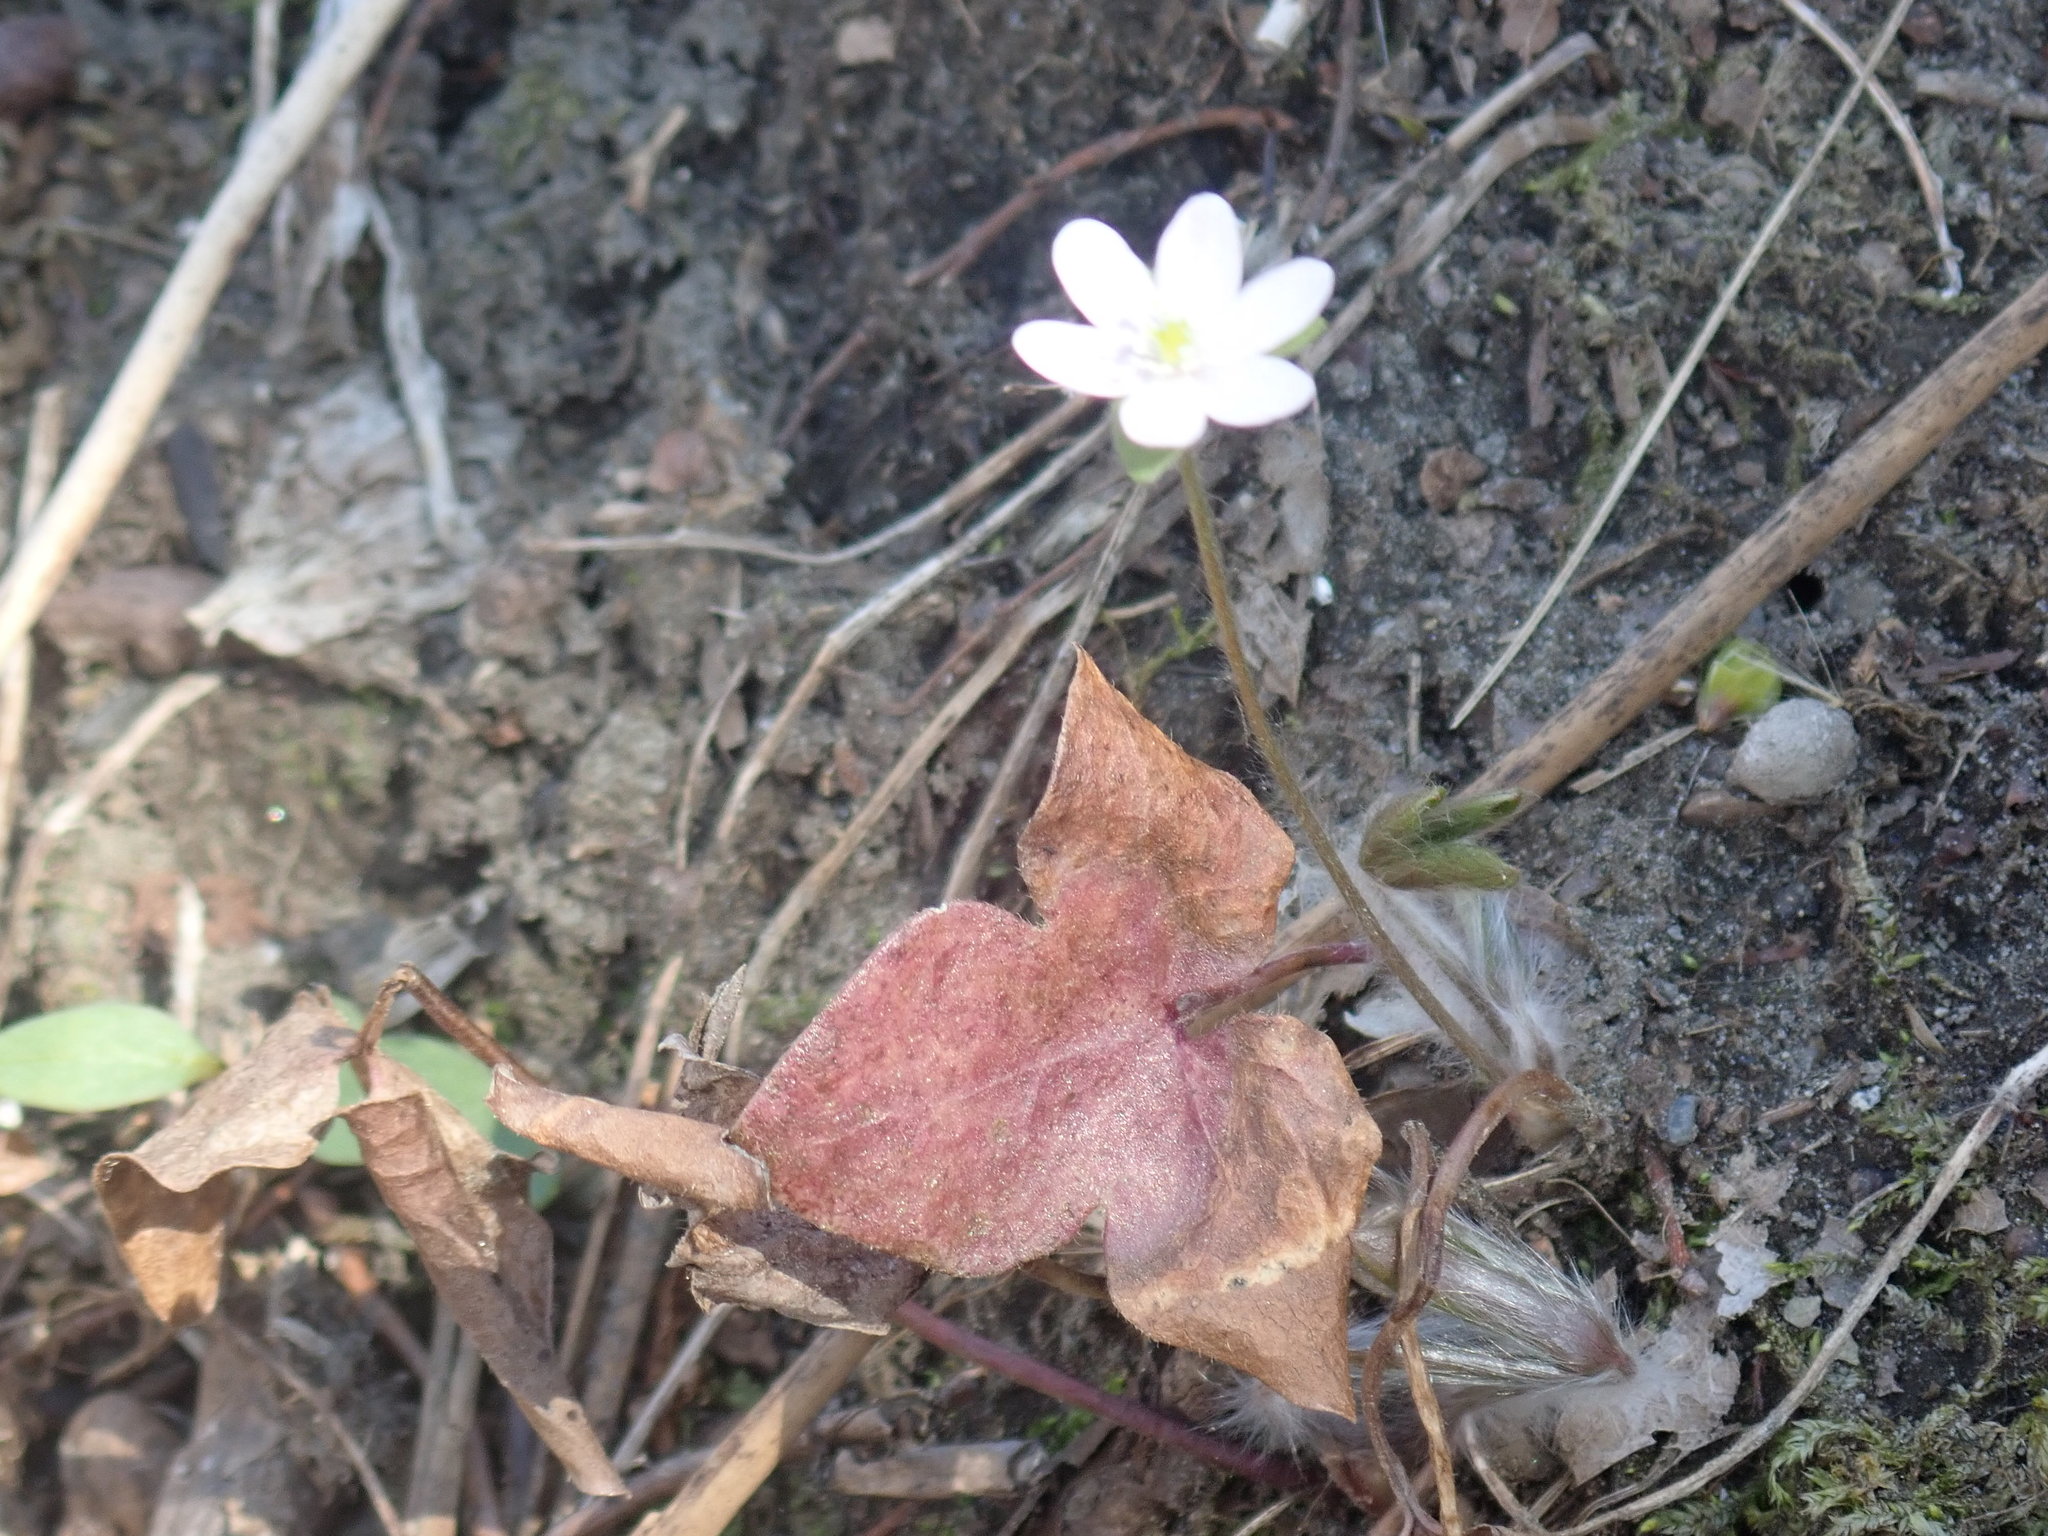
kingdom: Plantae
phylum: Tracheophyta
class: Magnoliopsida
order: Ranunculales
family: Ranunculaceae
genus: Hepatica
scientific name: Hepatica acutiloba
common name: Sharp-lobed hepatica
